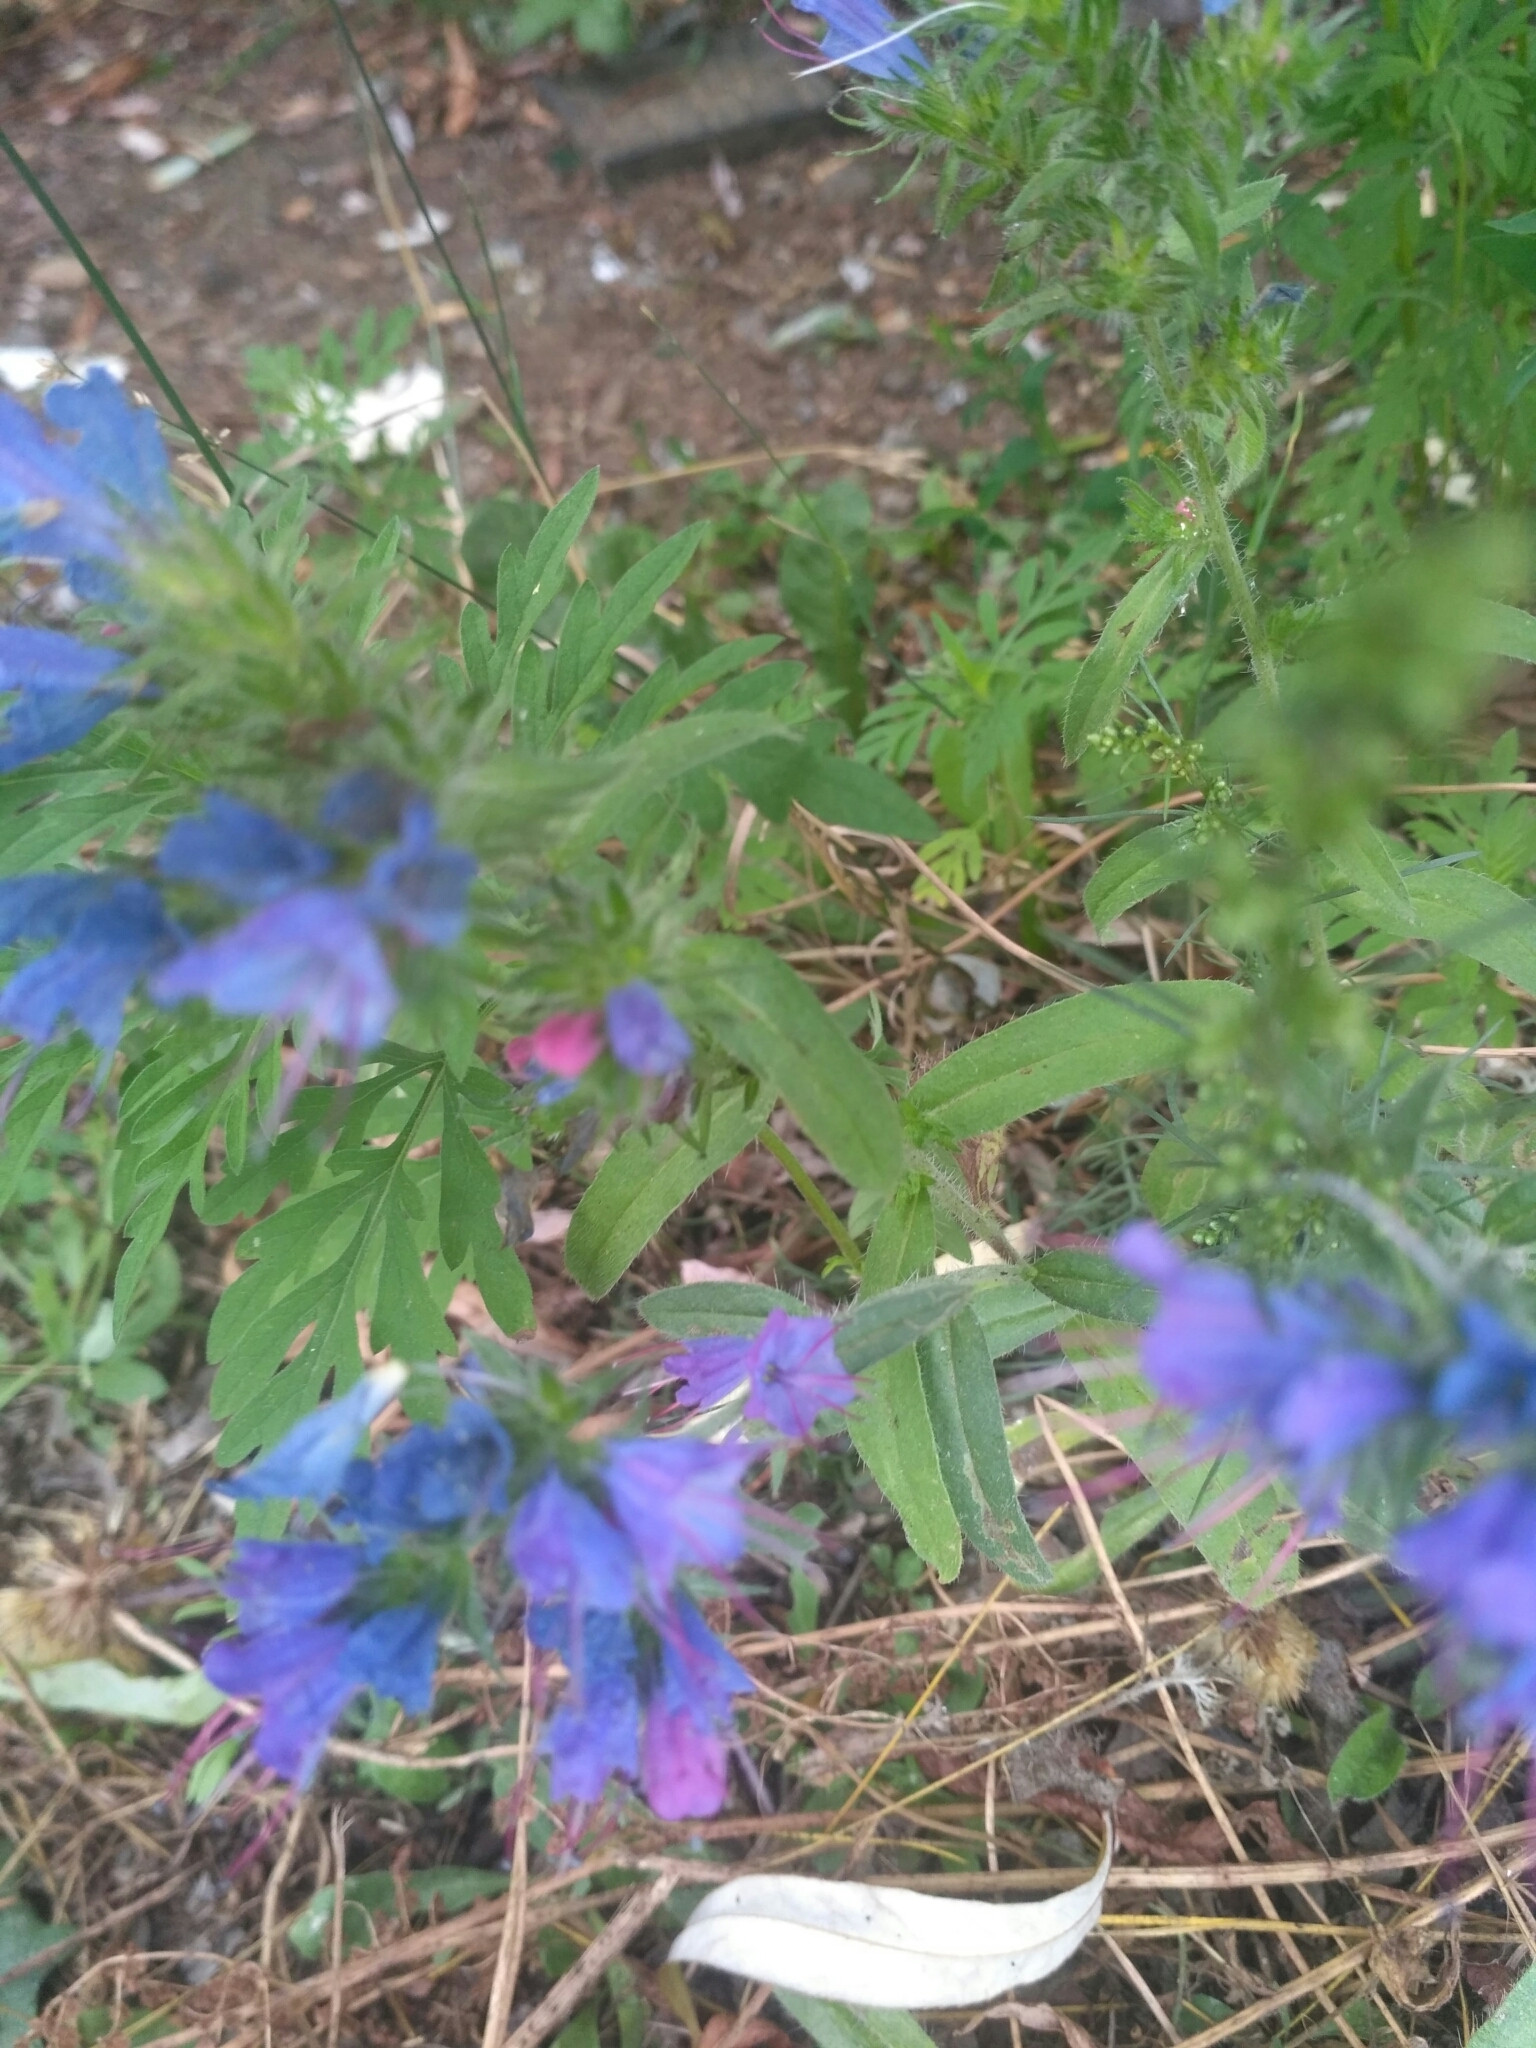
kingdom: Plantae
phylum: Tracheophyta
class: Magnoliopsida
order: Boraginales
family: Boraginaceae
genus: Echium
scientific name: Echium vulgare
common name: Common viper's bugloss
